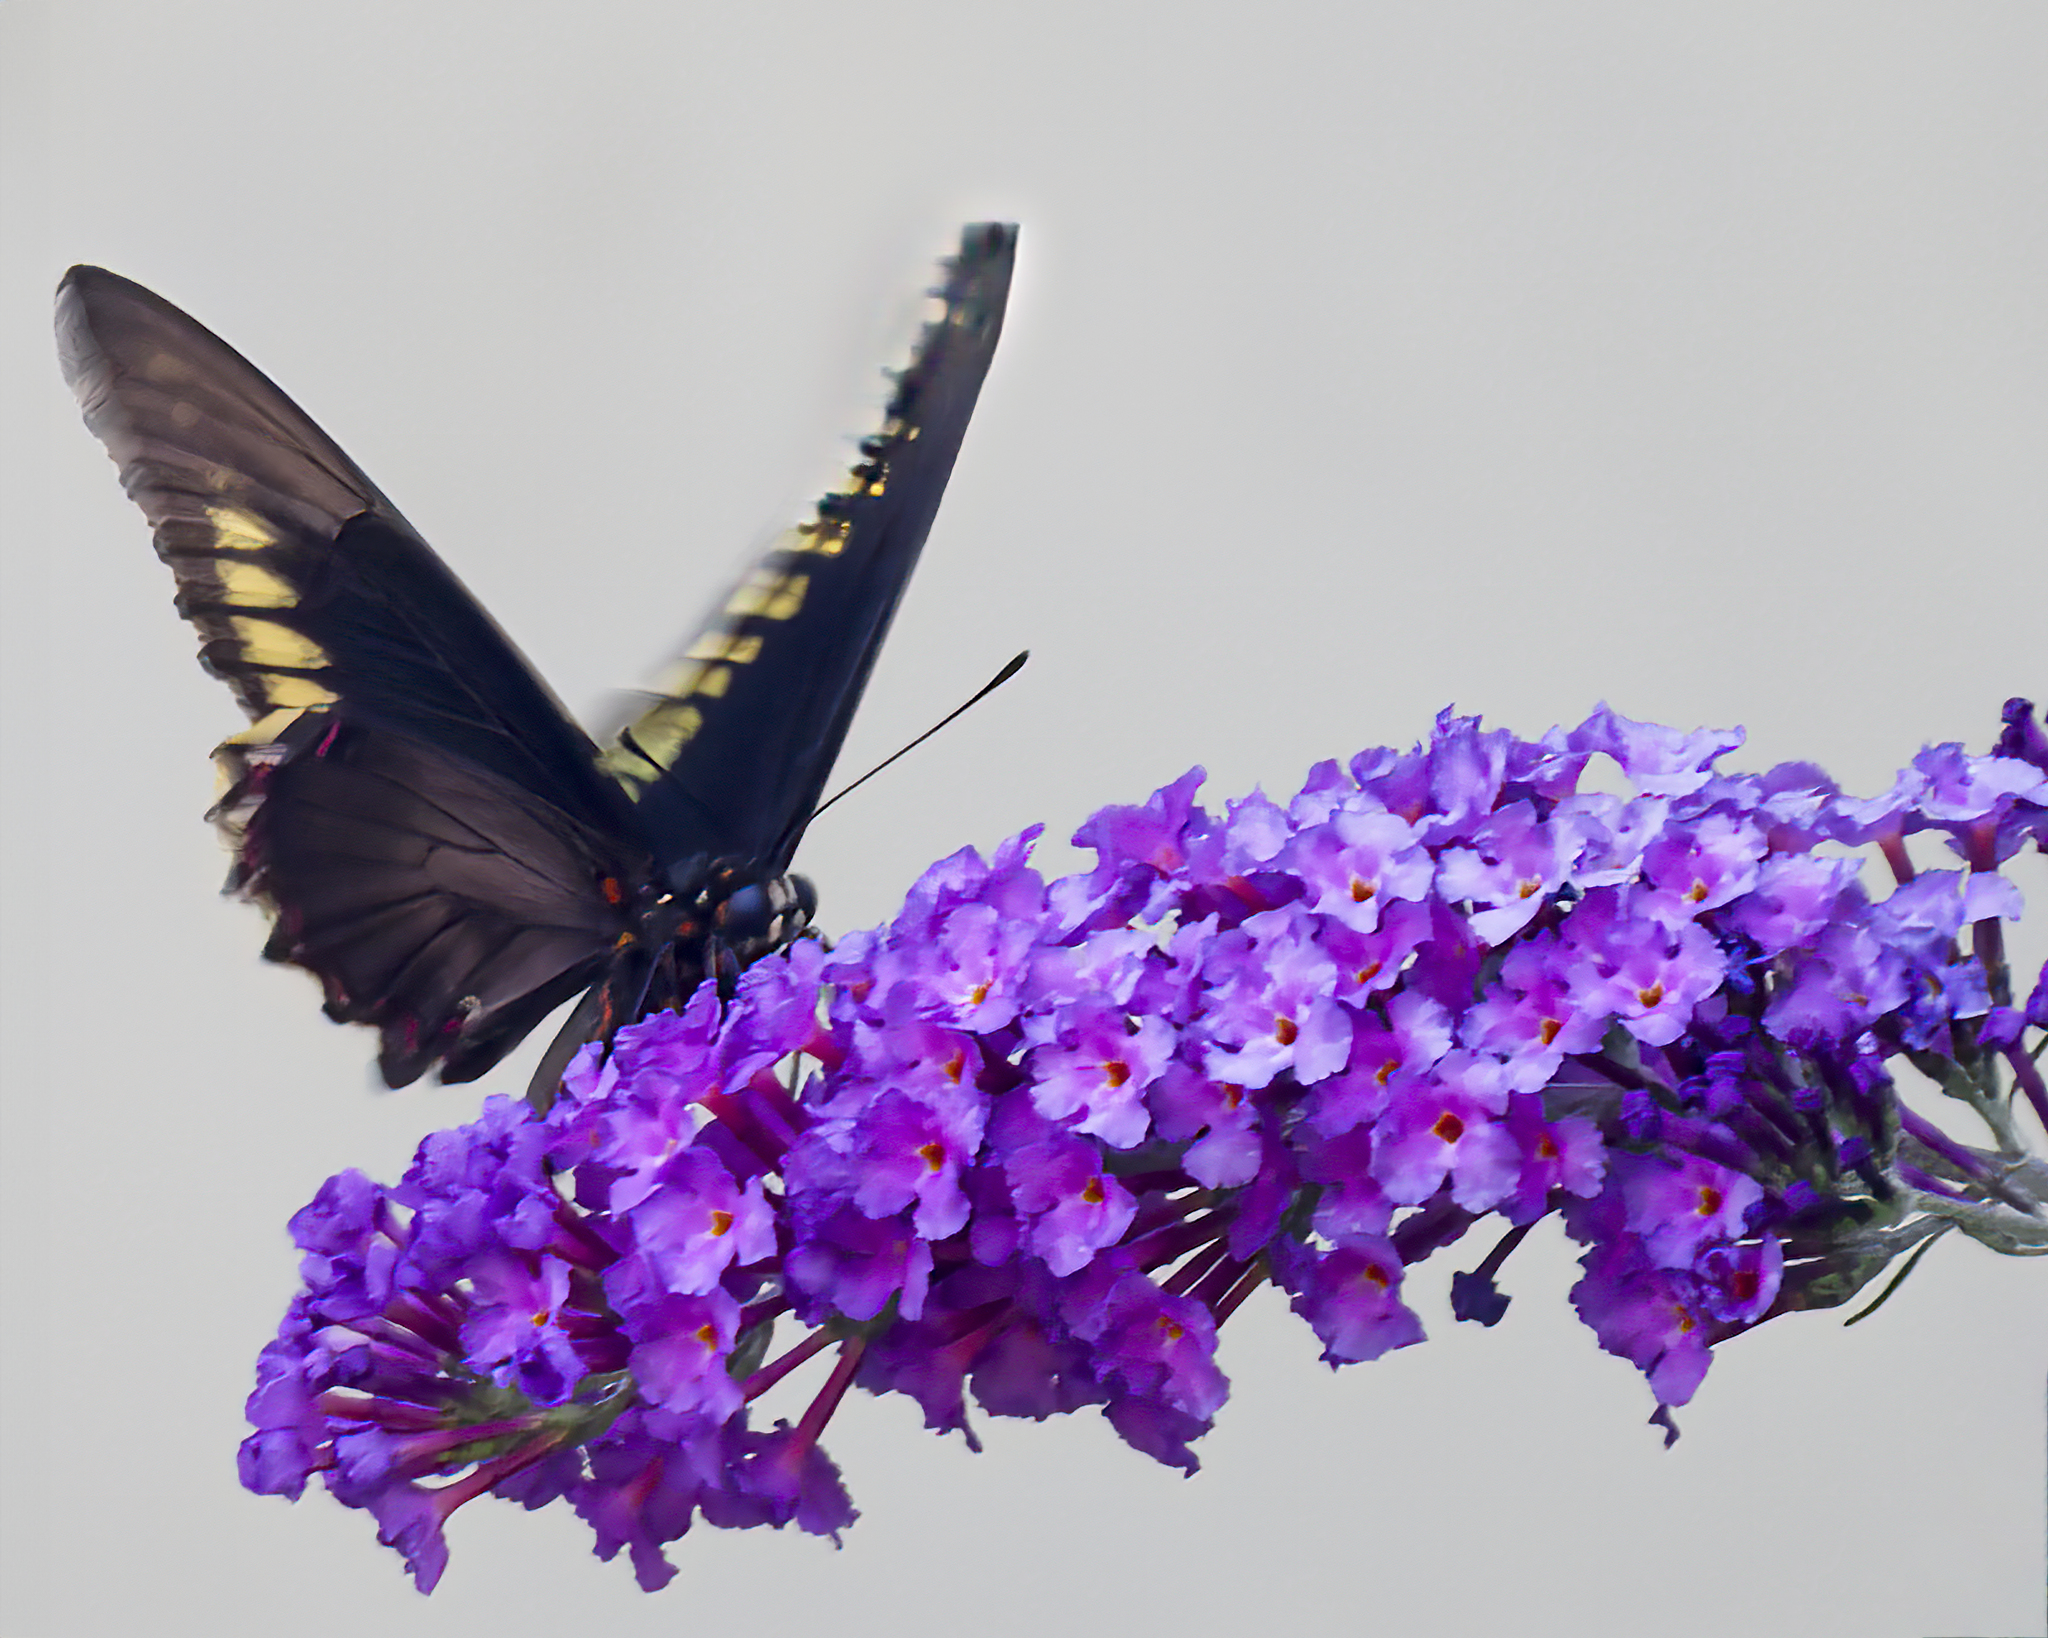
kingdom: Animalia
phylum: Arthropoda
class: Insecta
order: Lepidoptera
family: Papilionidae
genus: Battus
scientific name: Battus polydamas
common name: Polydamas swallowtail
